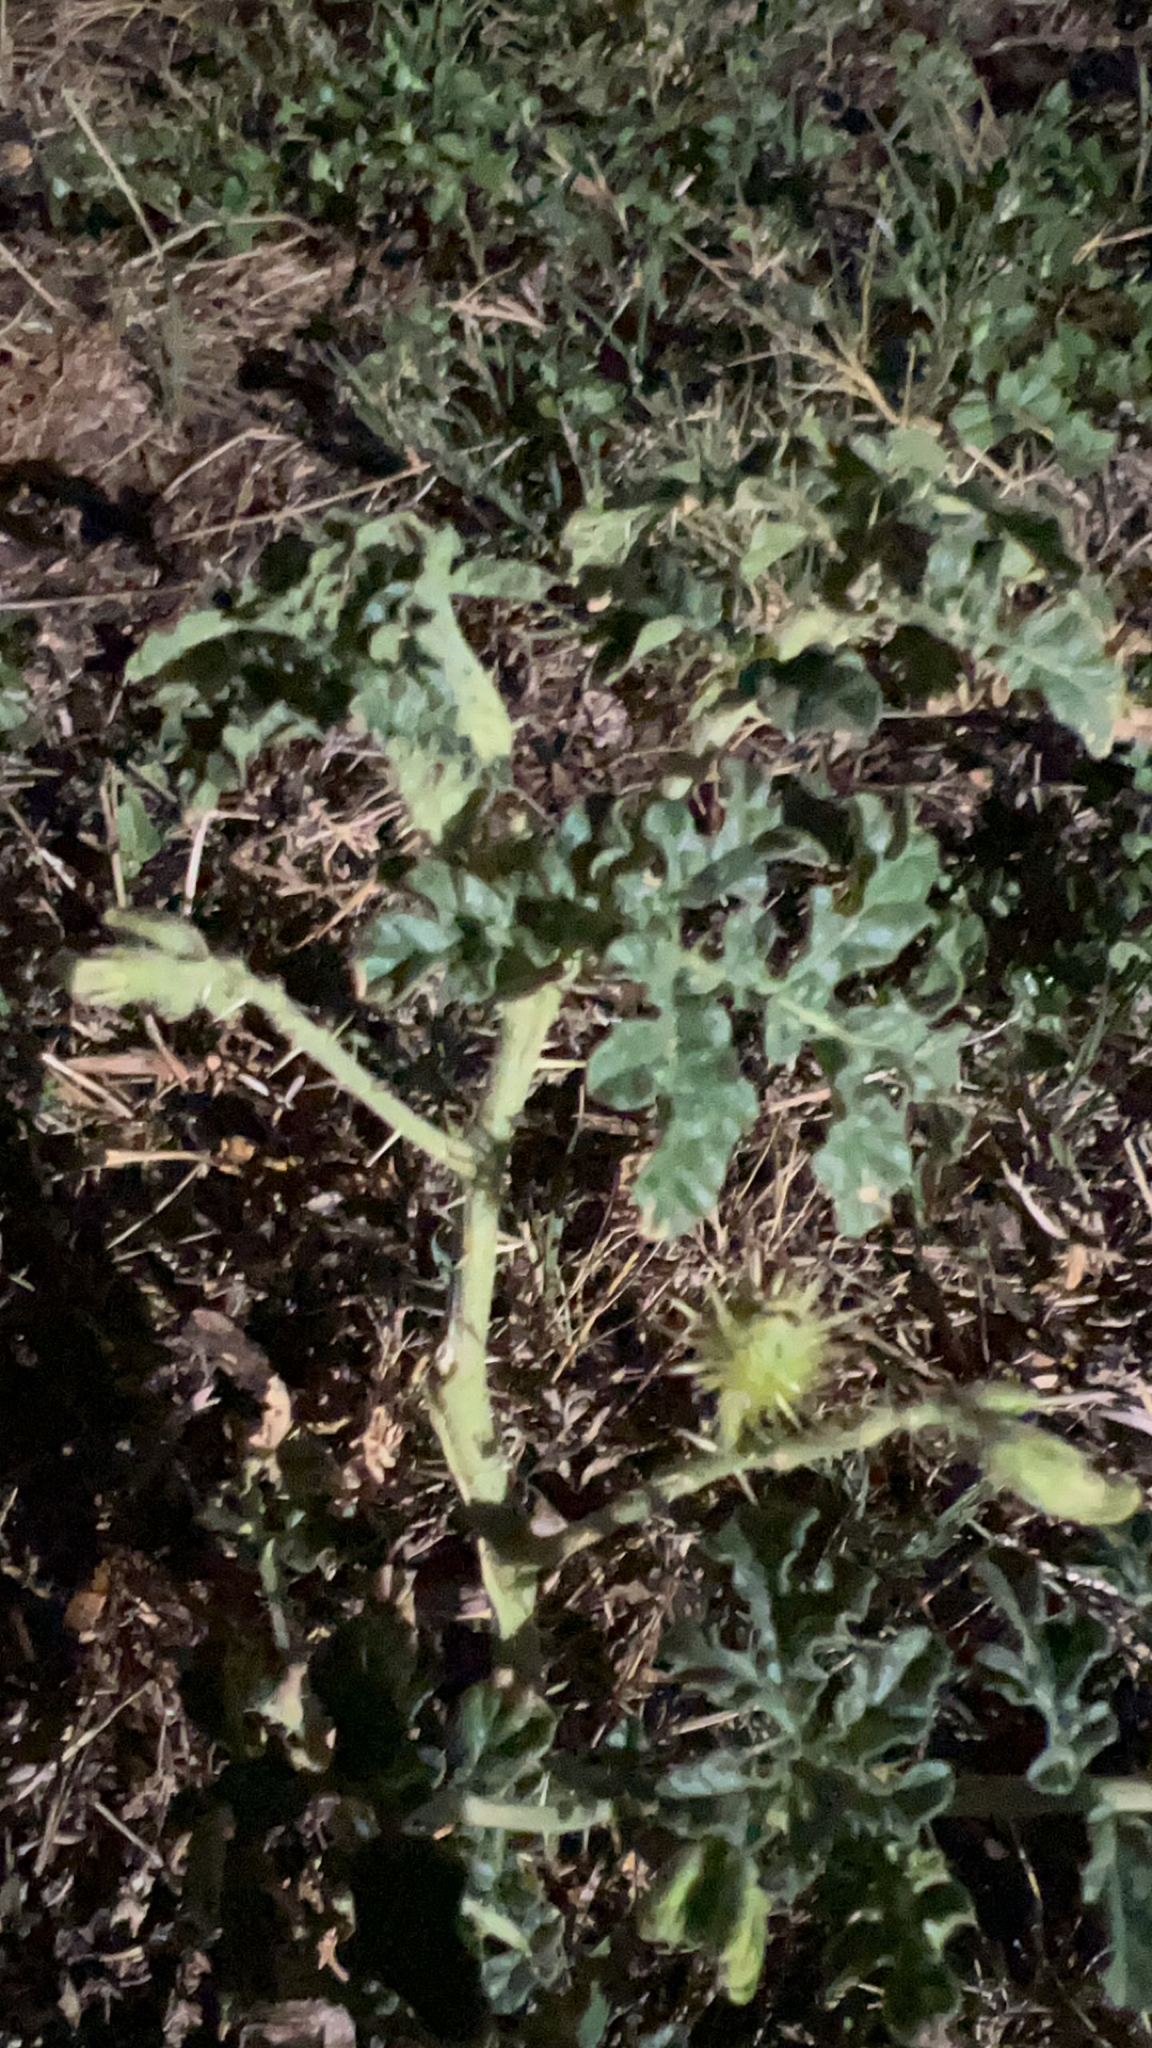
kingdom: Plantae
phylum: Tracheophyta
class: Magnoliopsida
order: Solanales
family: Solanaceae
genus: Solanum
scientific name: Solanum angustifolium
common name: Buffalobur nightshade
